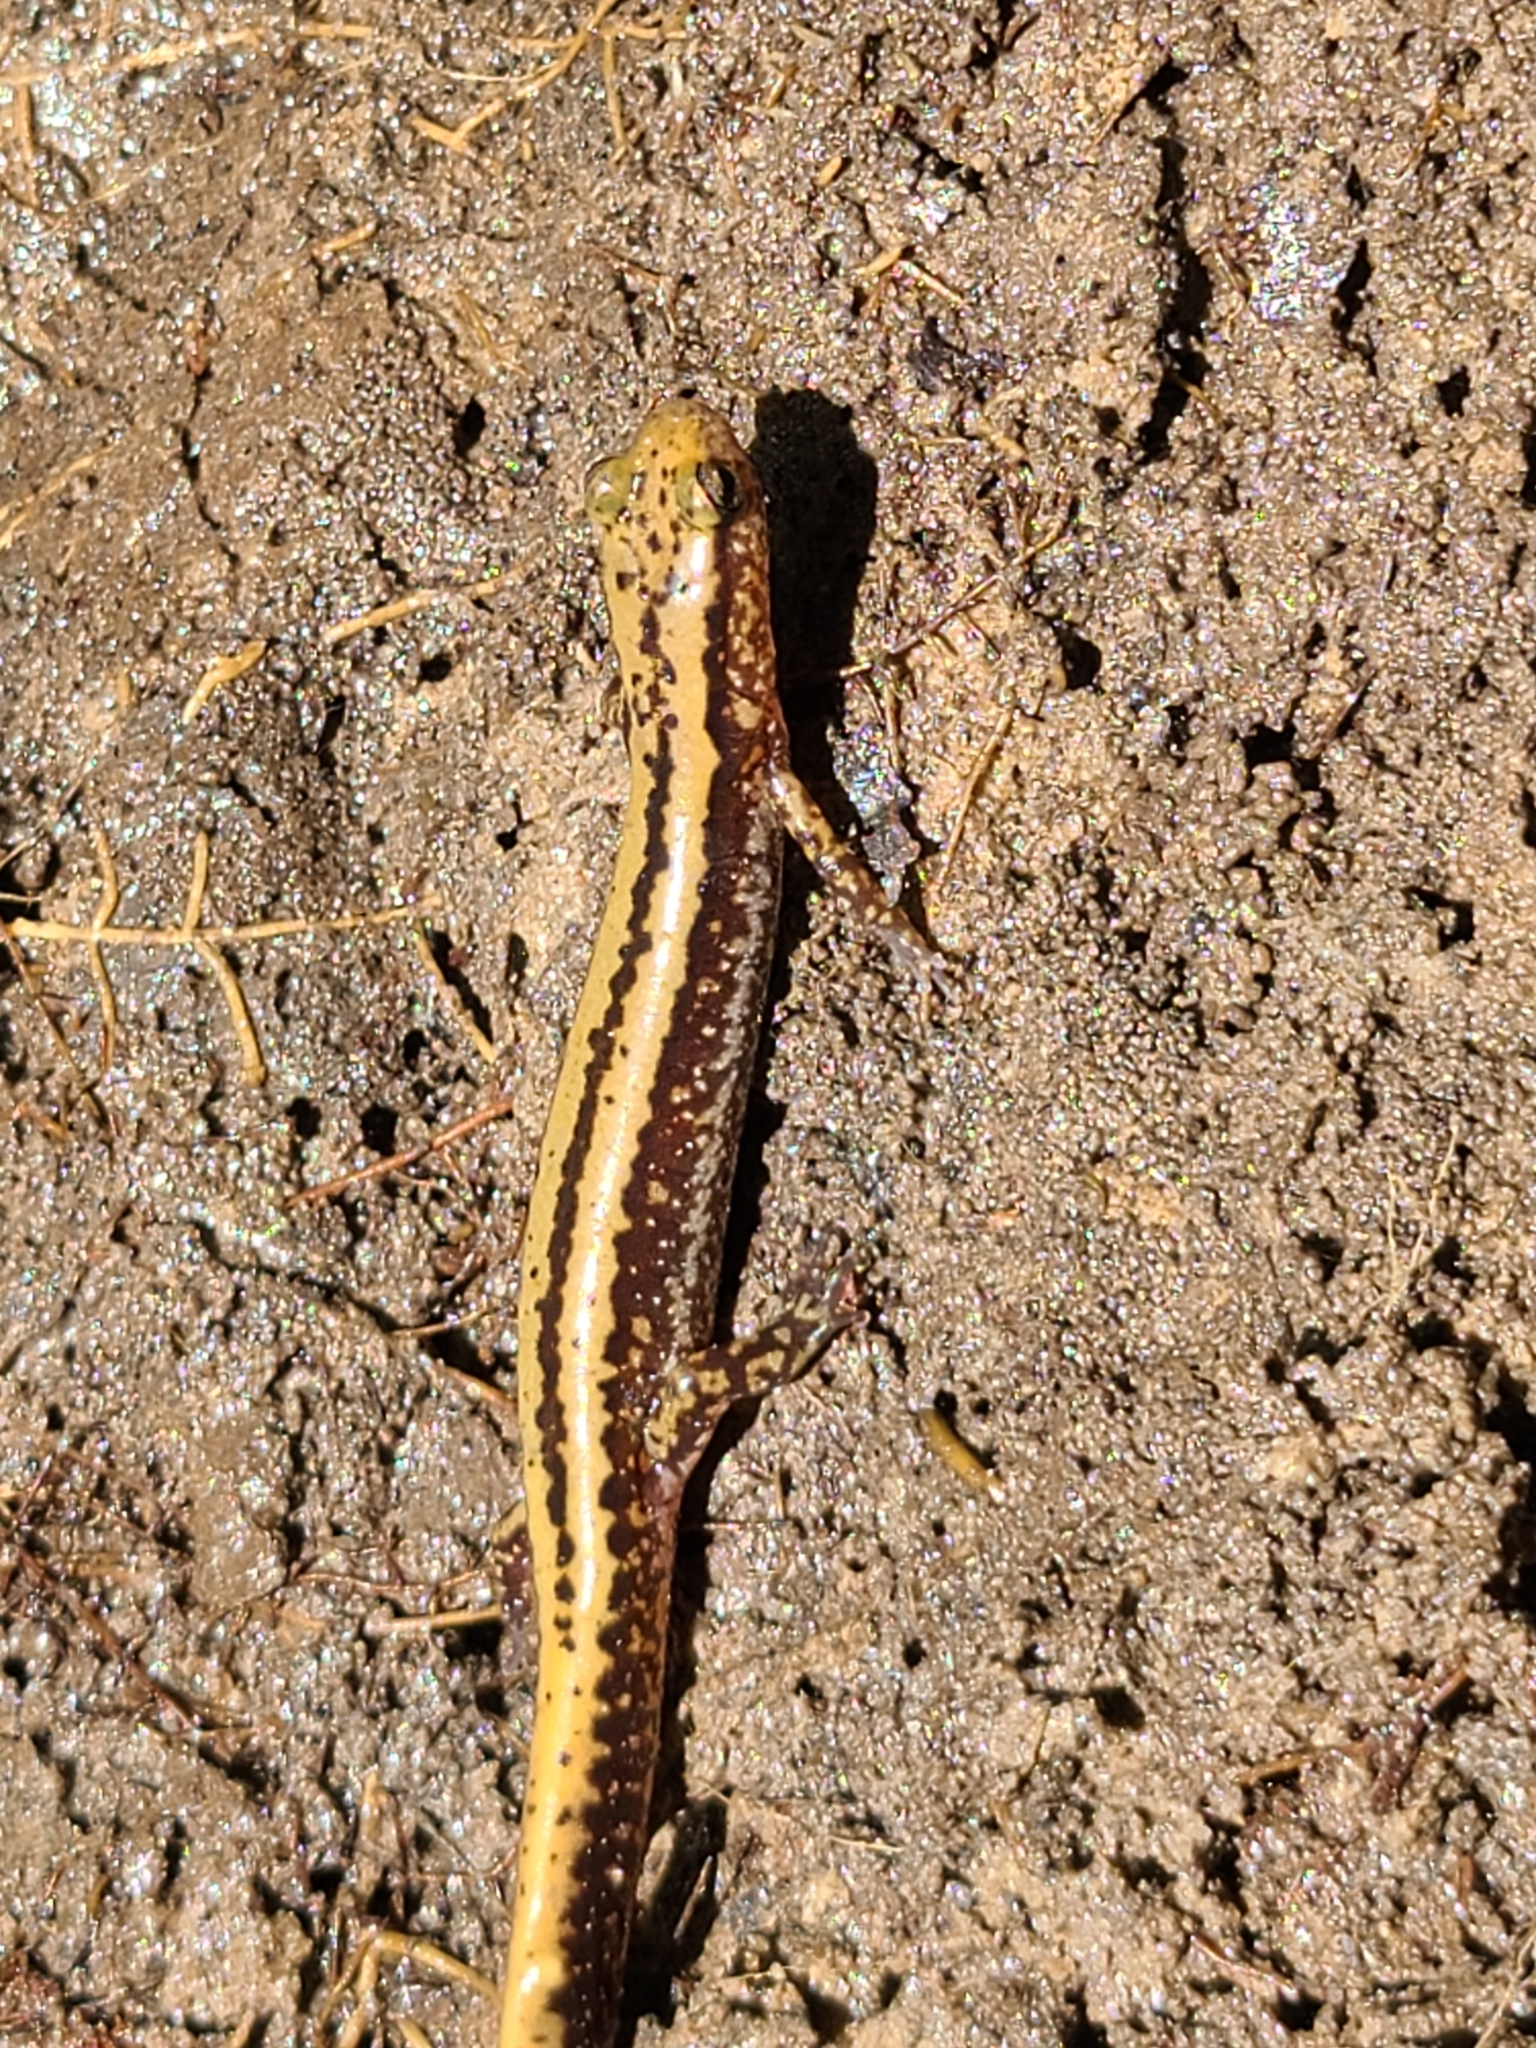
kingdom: Animalia
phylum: Chordata
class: Amphibia
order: Caudata
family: Plethodontidae
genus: Eurycea
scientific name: Eurycea guttolineata
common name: Three-lined salamander
